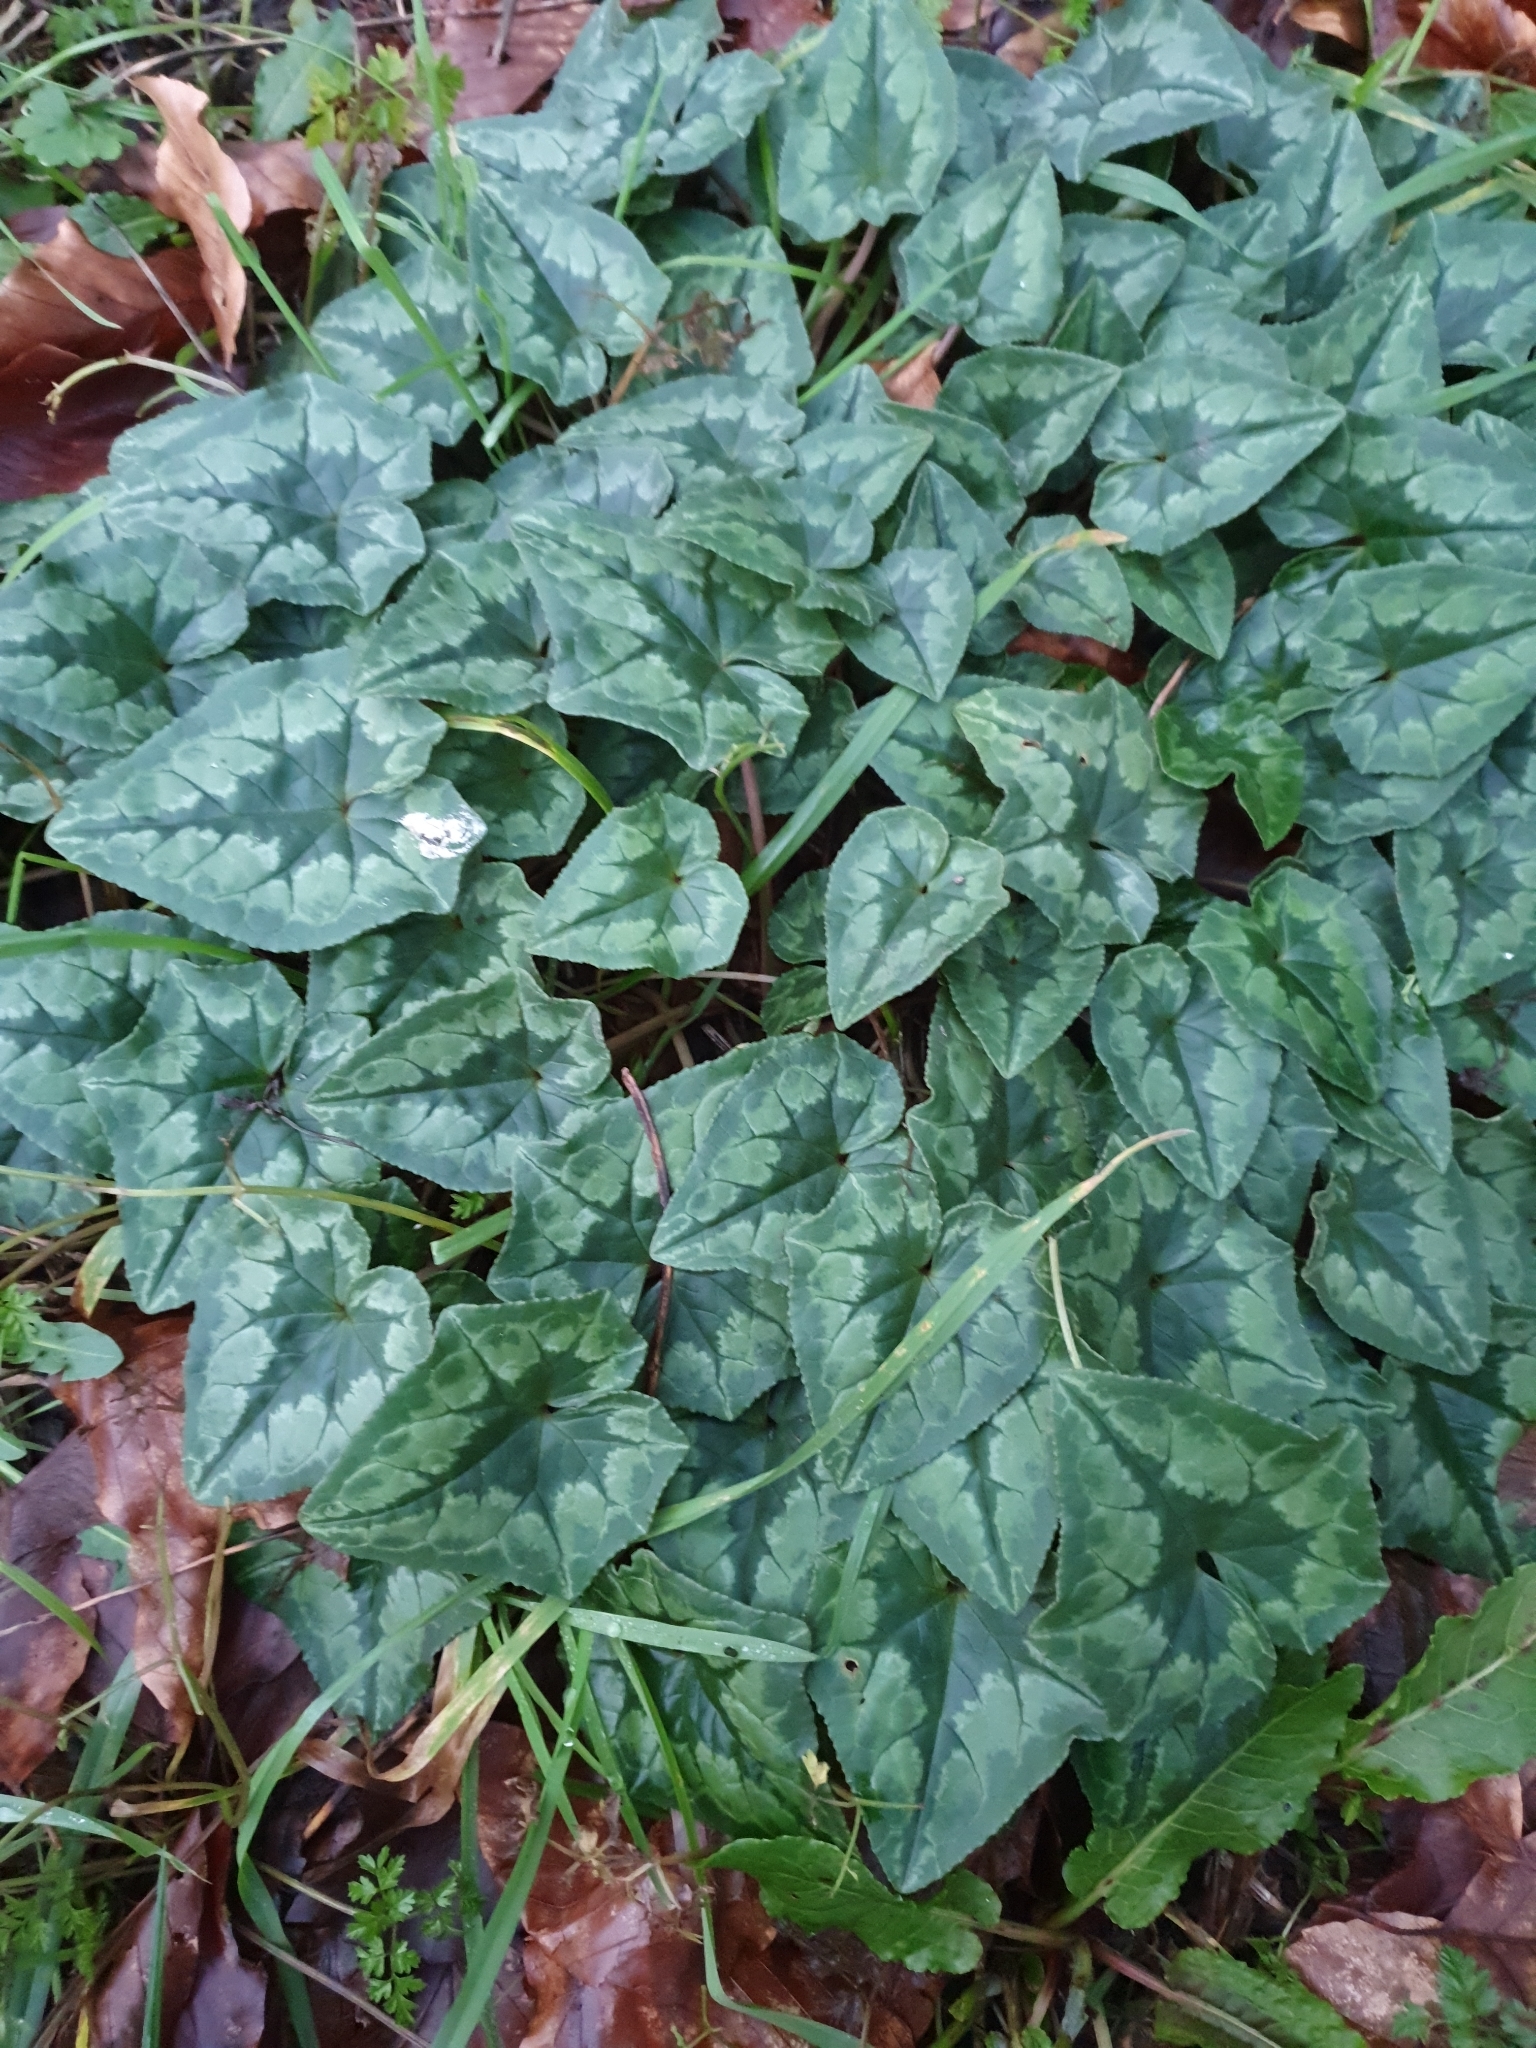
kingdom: Plantae
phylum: Tracheophyta
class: Magnoliopsida
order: Ericales
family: Primulaceae
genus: Cyclamen
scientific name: Cyclamen hederifolium
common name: Sowbread
